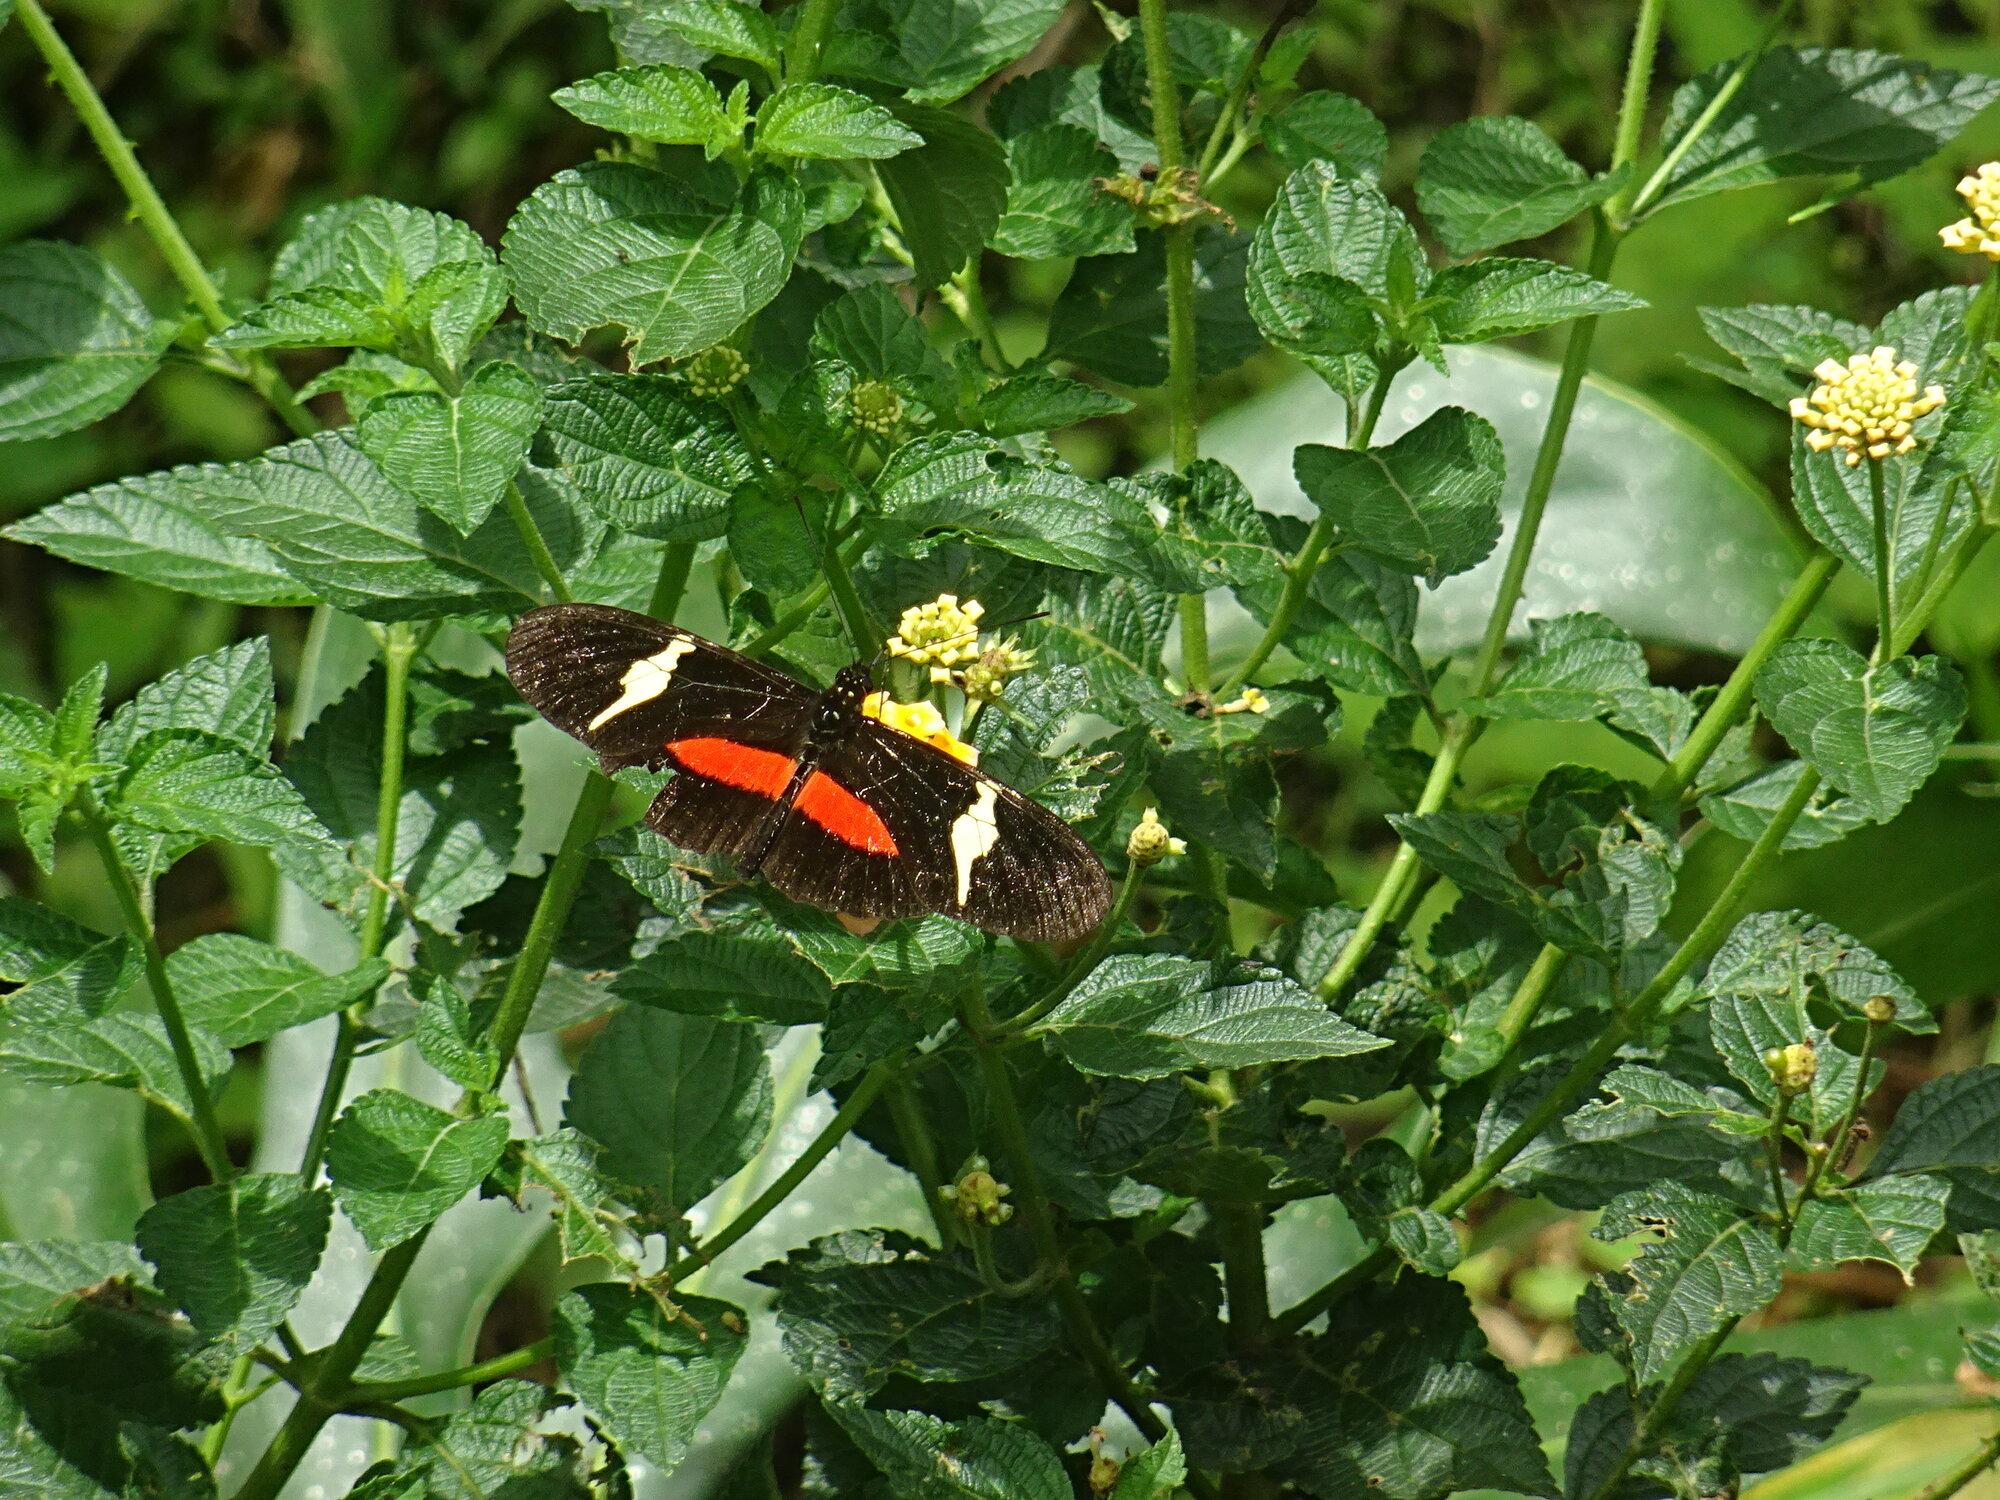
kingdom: Animalia
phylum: Arthropoda
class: Insecta
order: Lepidoptera
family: Nymphalidae
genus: Heliconius
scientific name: Heliconius clysonymus
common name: Clysonymus longwing
